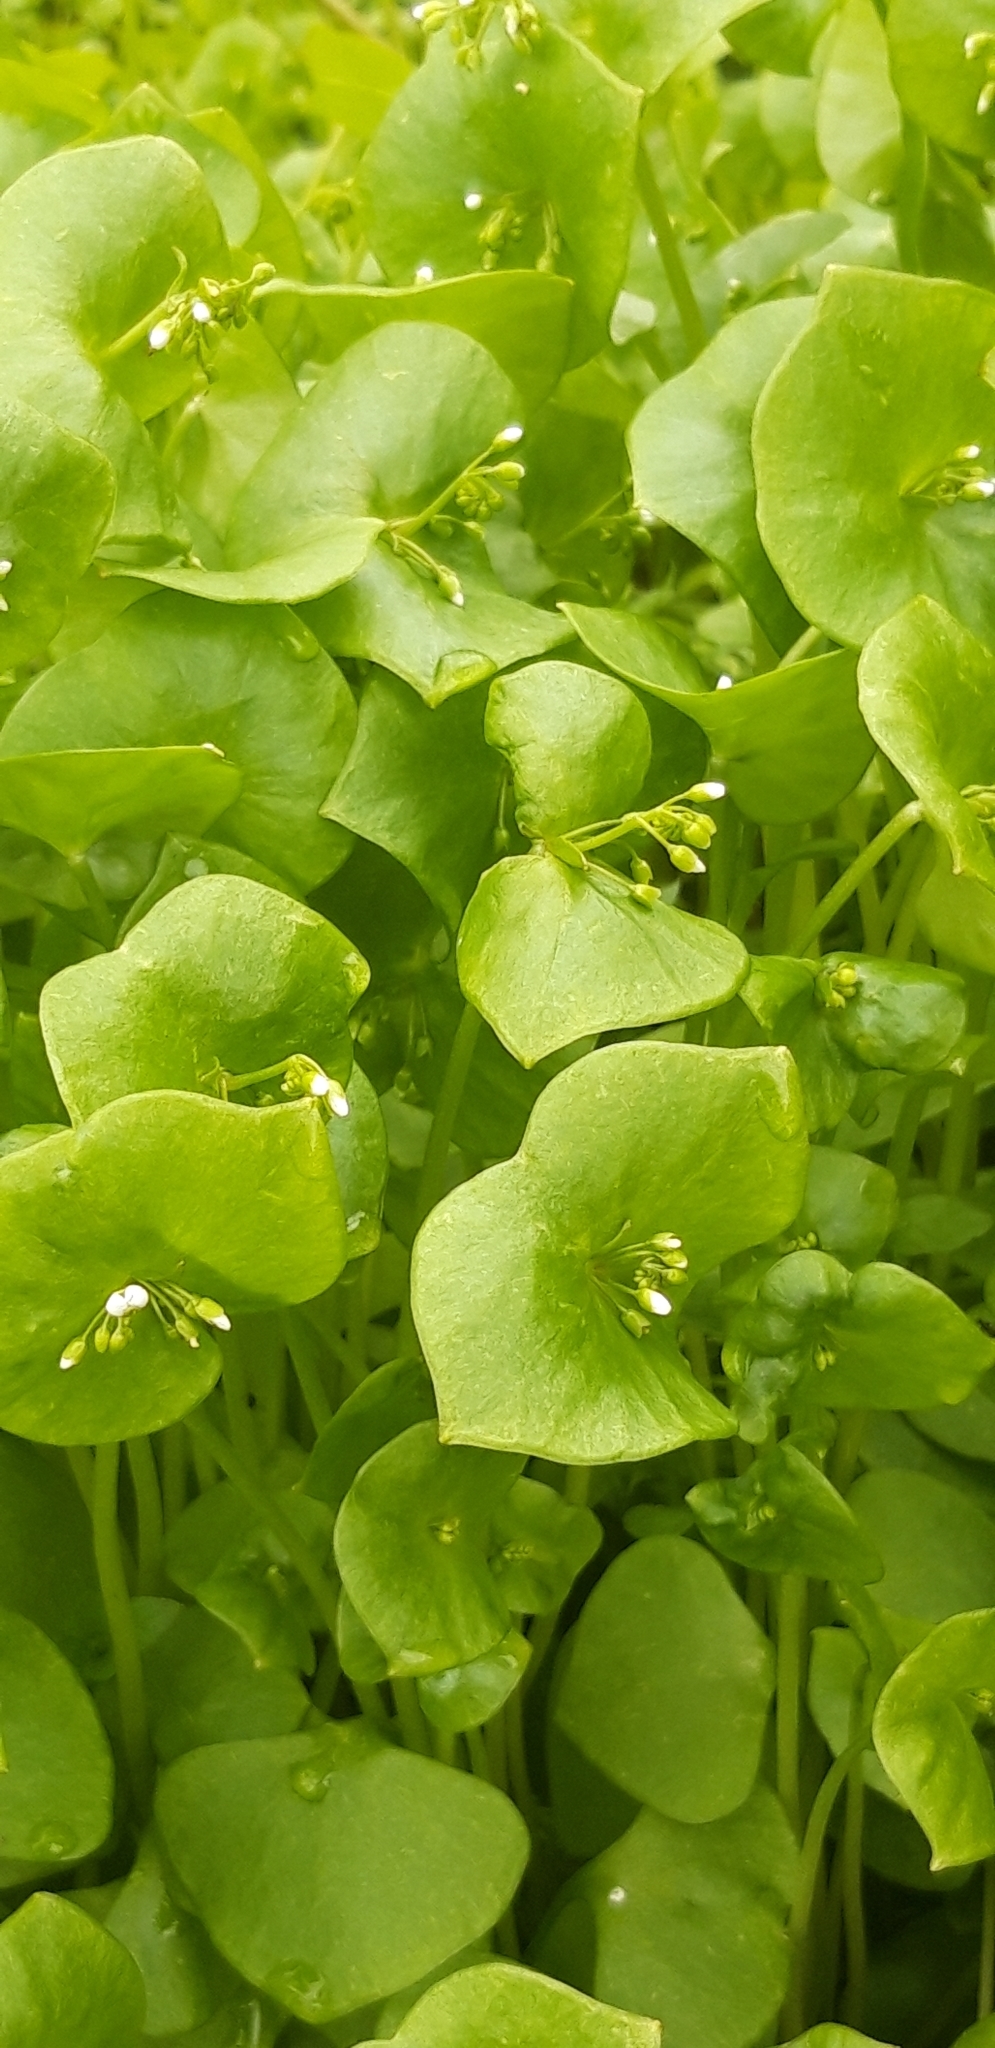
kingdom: Plantae
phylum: Tracheophyta
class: Magnoliopsida
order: Caryophyllales
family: Montiaceae
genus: Claytonia
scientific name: Claytonia perfoliata
